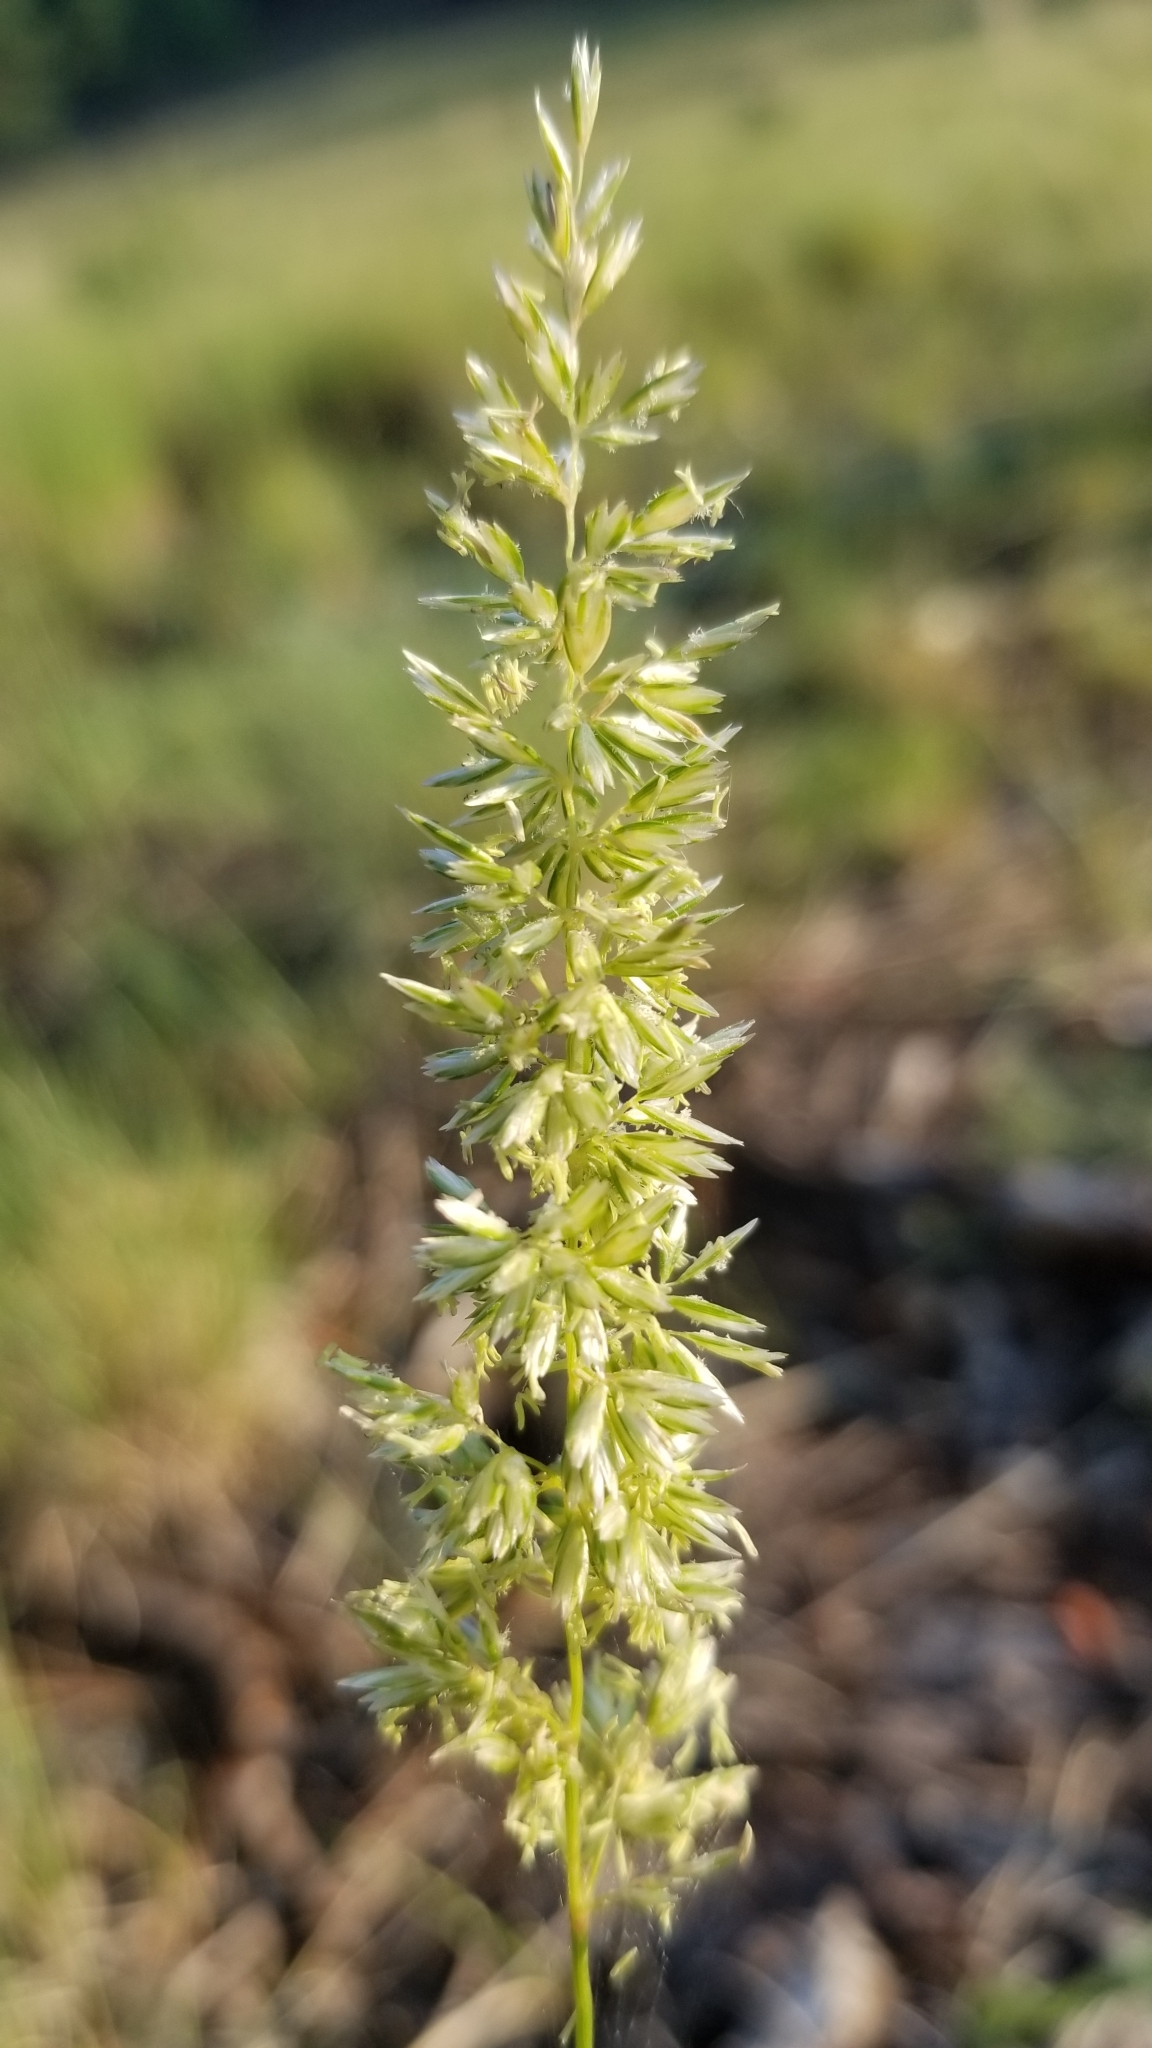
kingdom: Plantae
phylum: Tracheophyta
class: Liliopsida
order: Poales
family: Poaceae
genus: Koeleria
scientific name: Koeleria macrantha
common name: Crested hair-grass
